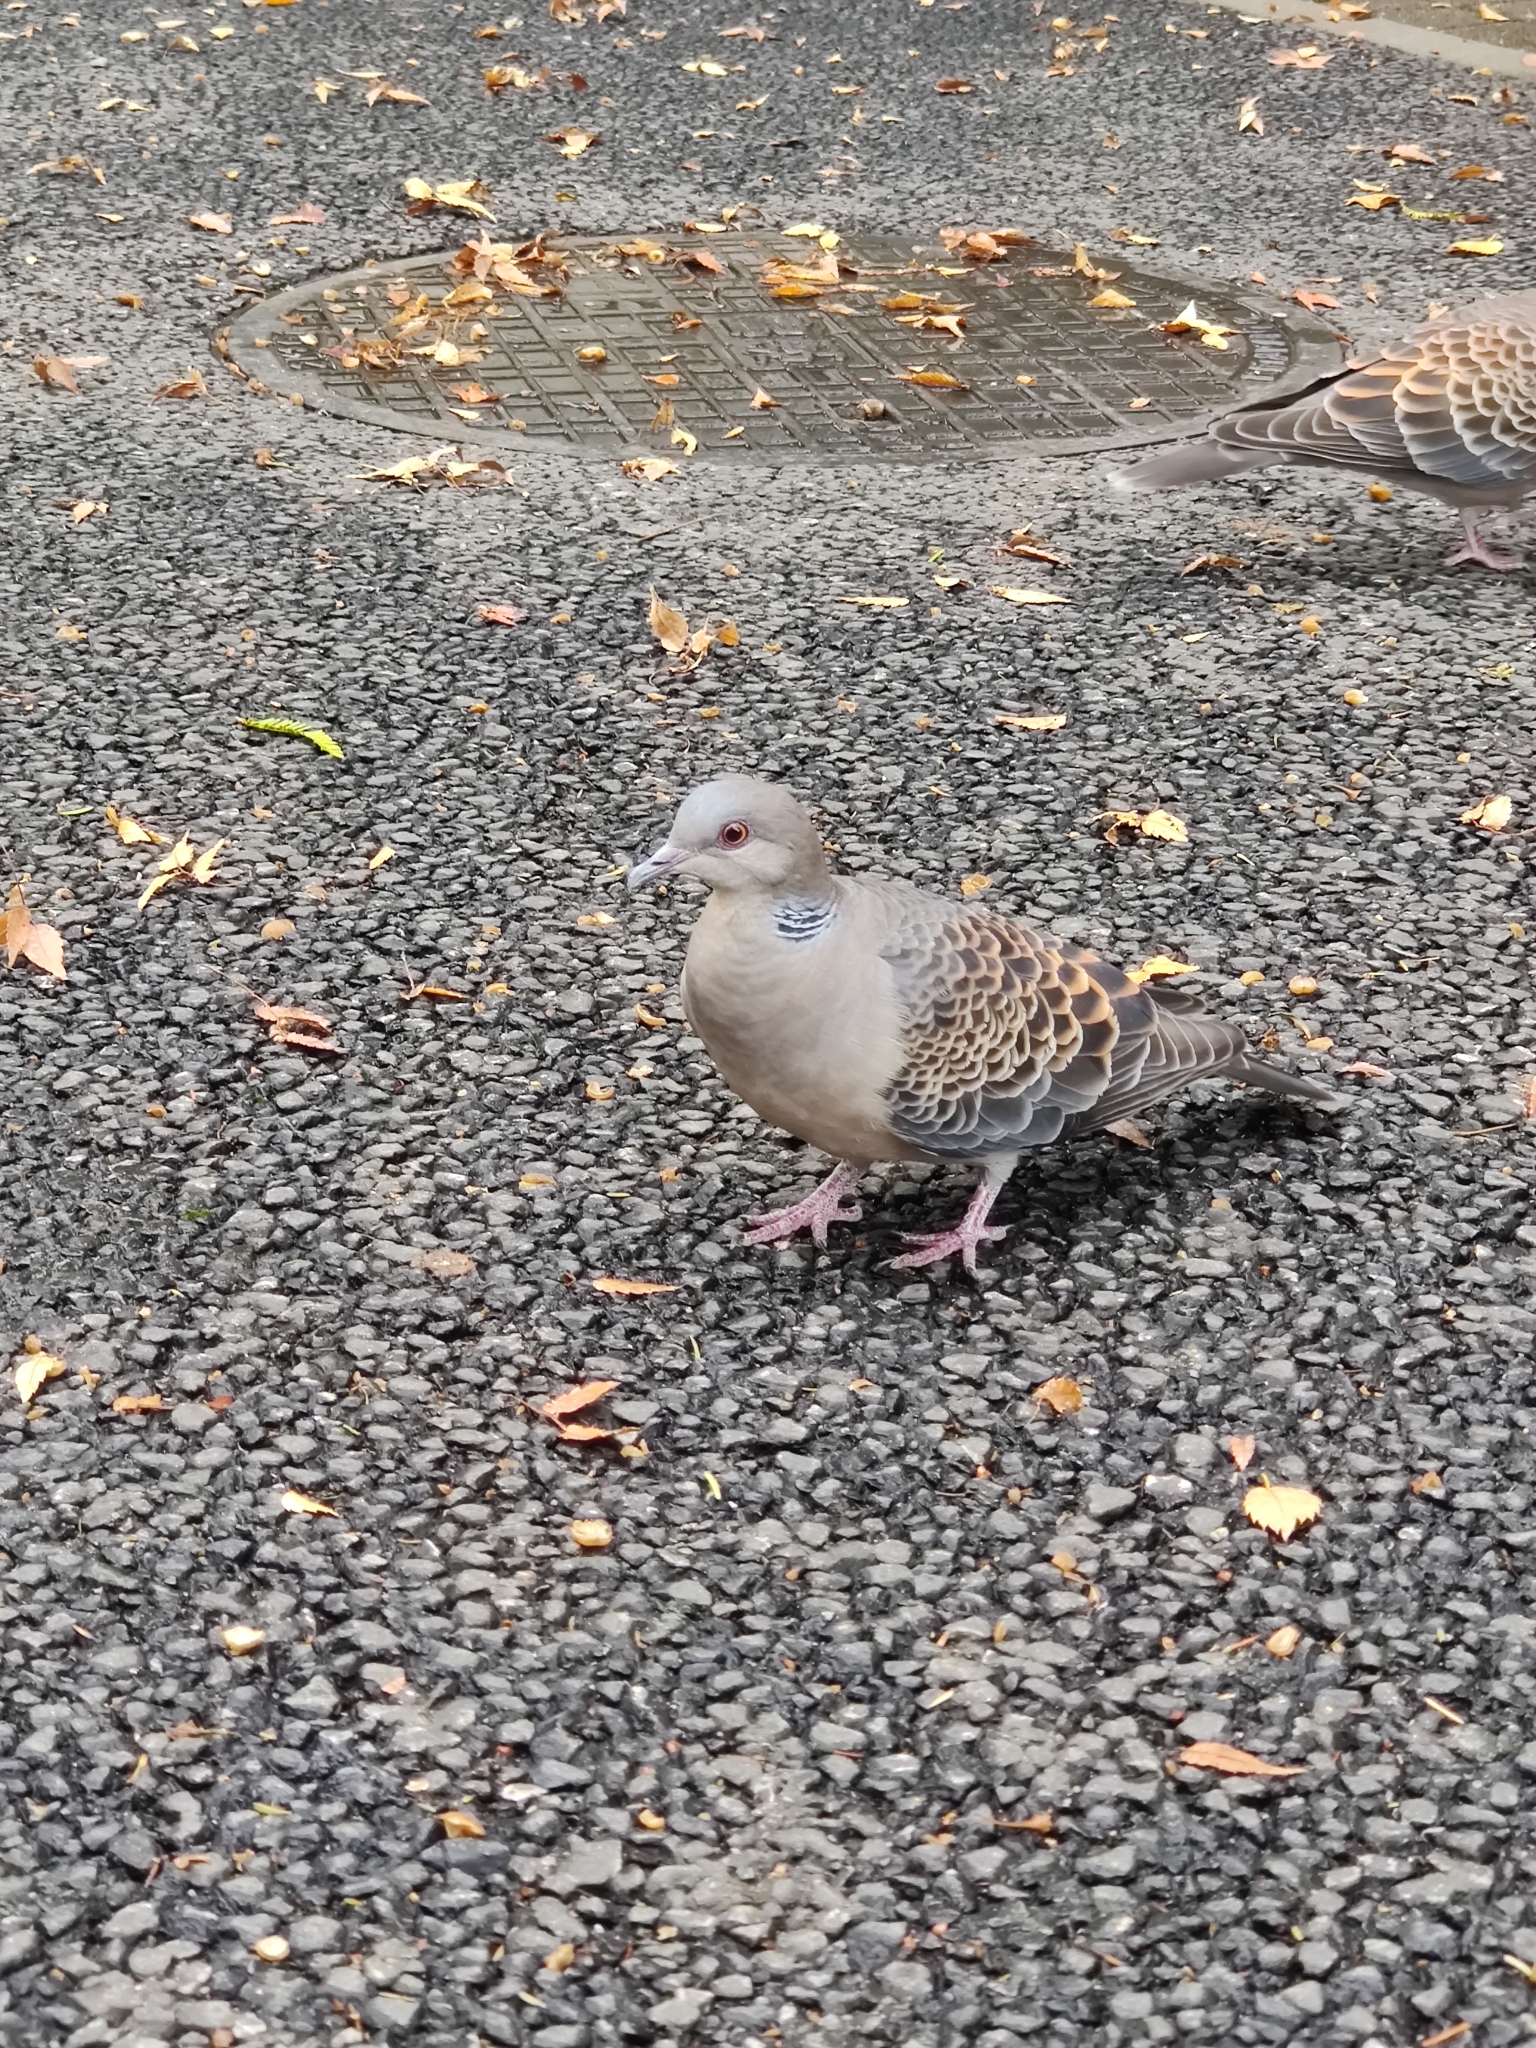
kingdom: Animalia
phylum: Chordata
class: Aves
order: Columbiformes
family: Columbidae
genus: Streptopelia
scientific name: Streptopelia orientalis
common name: Oriental turtle dove
